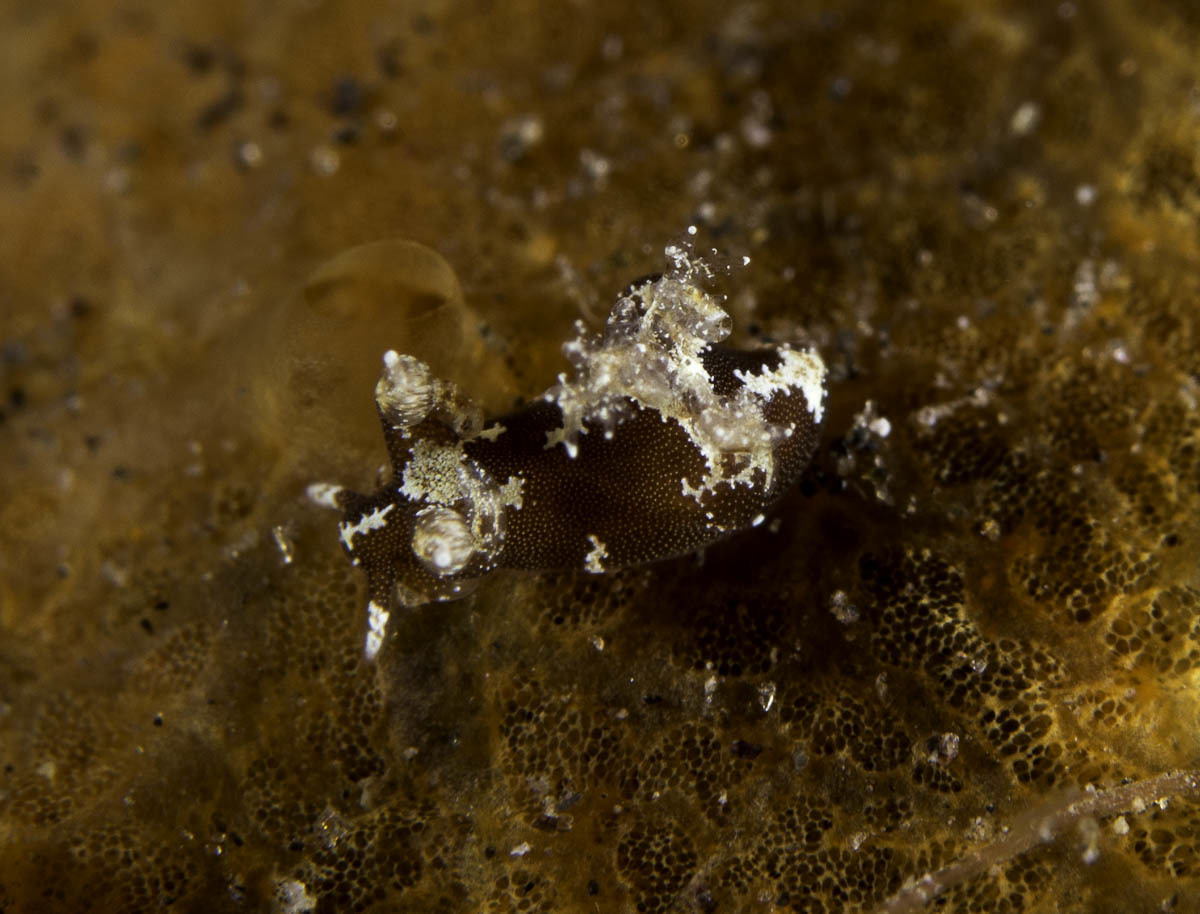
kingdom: Animalia
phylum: Mollusca
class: Gastropoda
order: Nudibranchia
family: Goniodorididae
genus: Trapania
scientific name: Trapania euryeia
